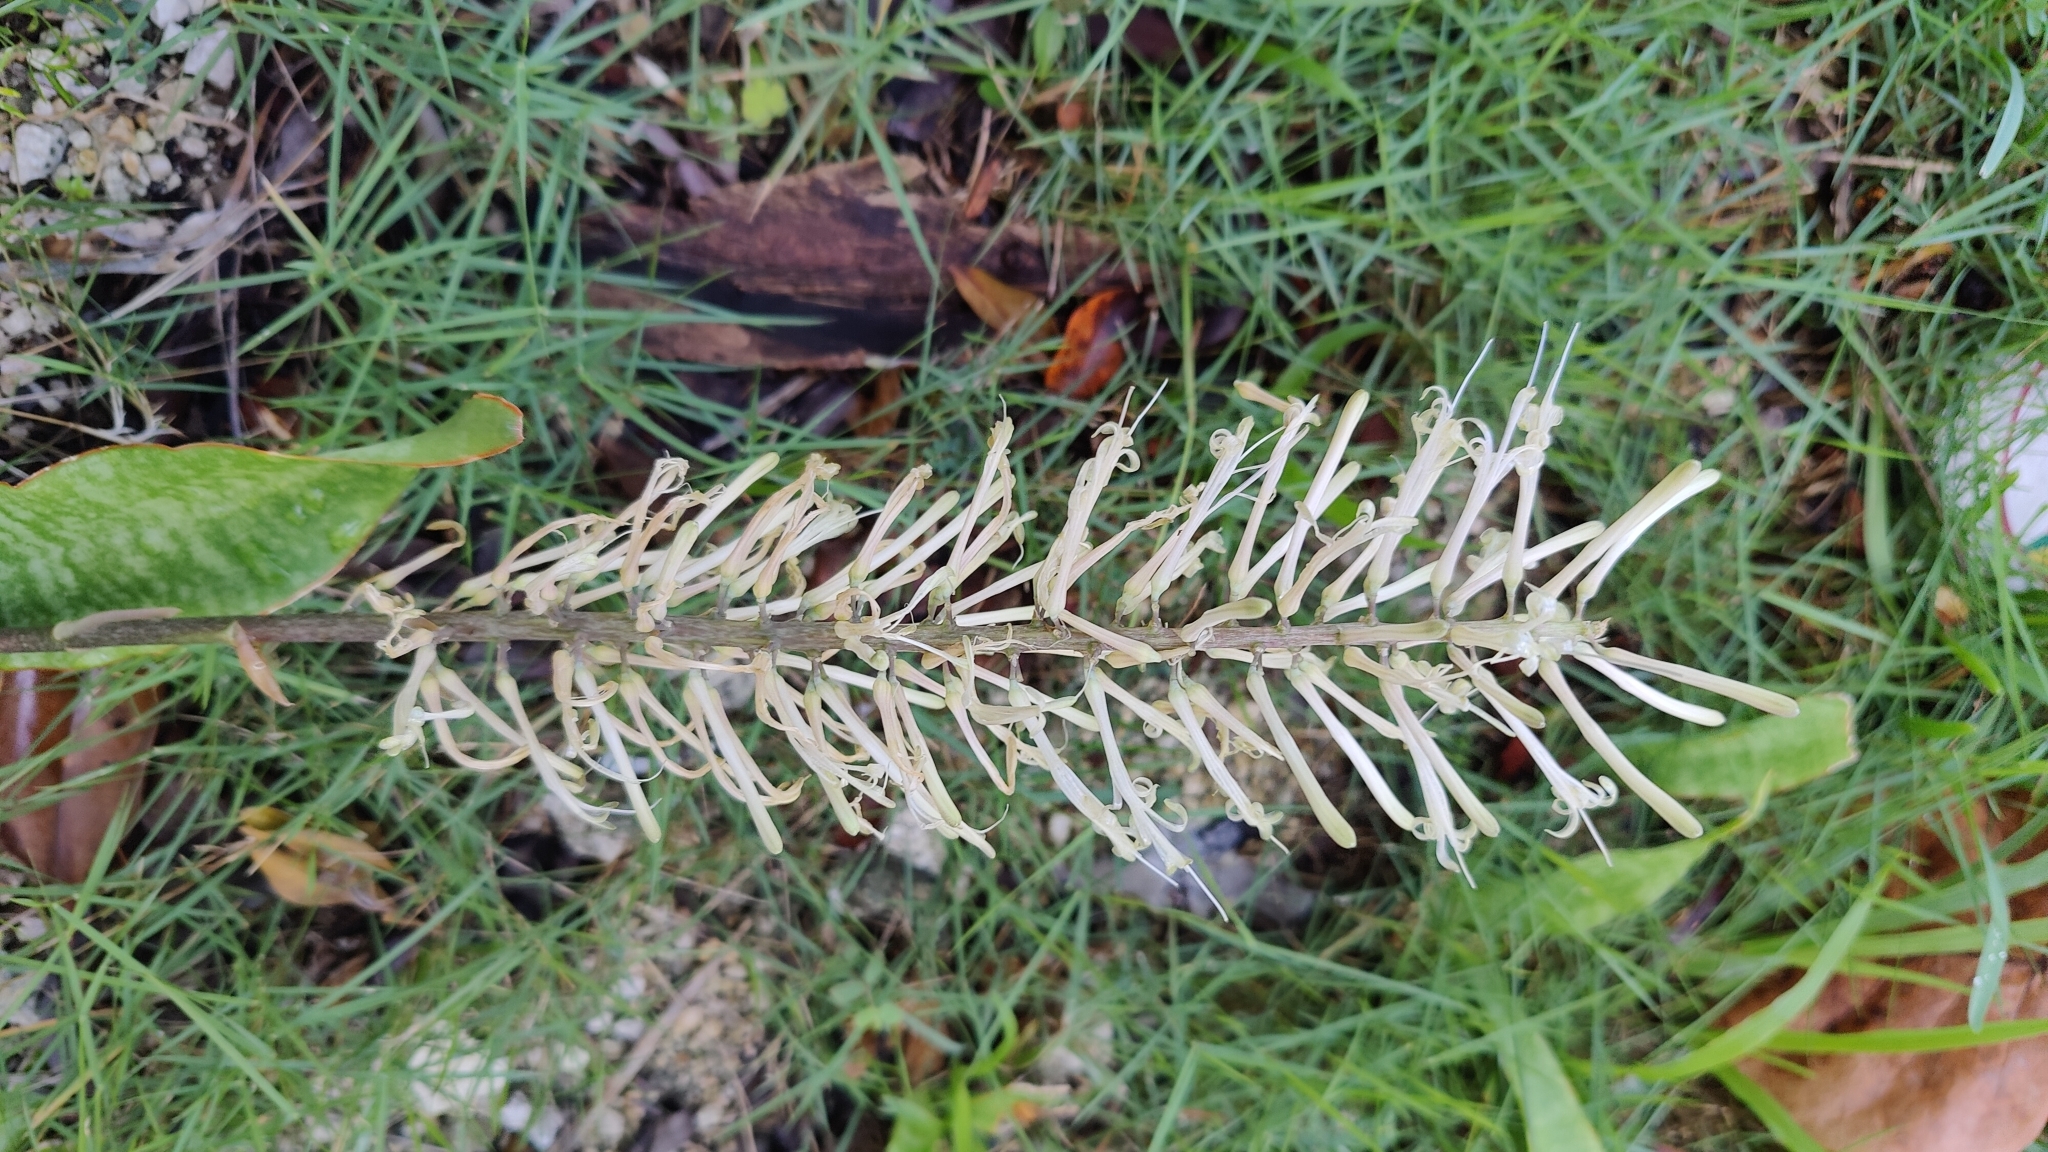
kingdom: Plantae
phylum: Tracheophyta
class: Liliopsida
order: Asparagales
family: Asparagaceae
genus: Dracaena
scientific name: Dracaena hyacinthoides
